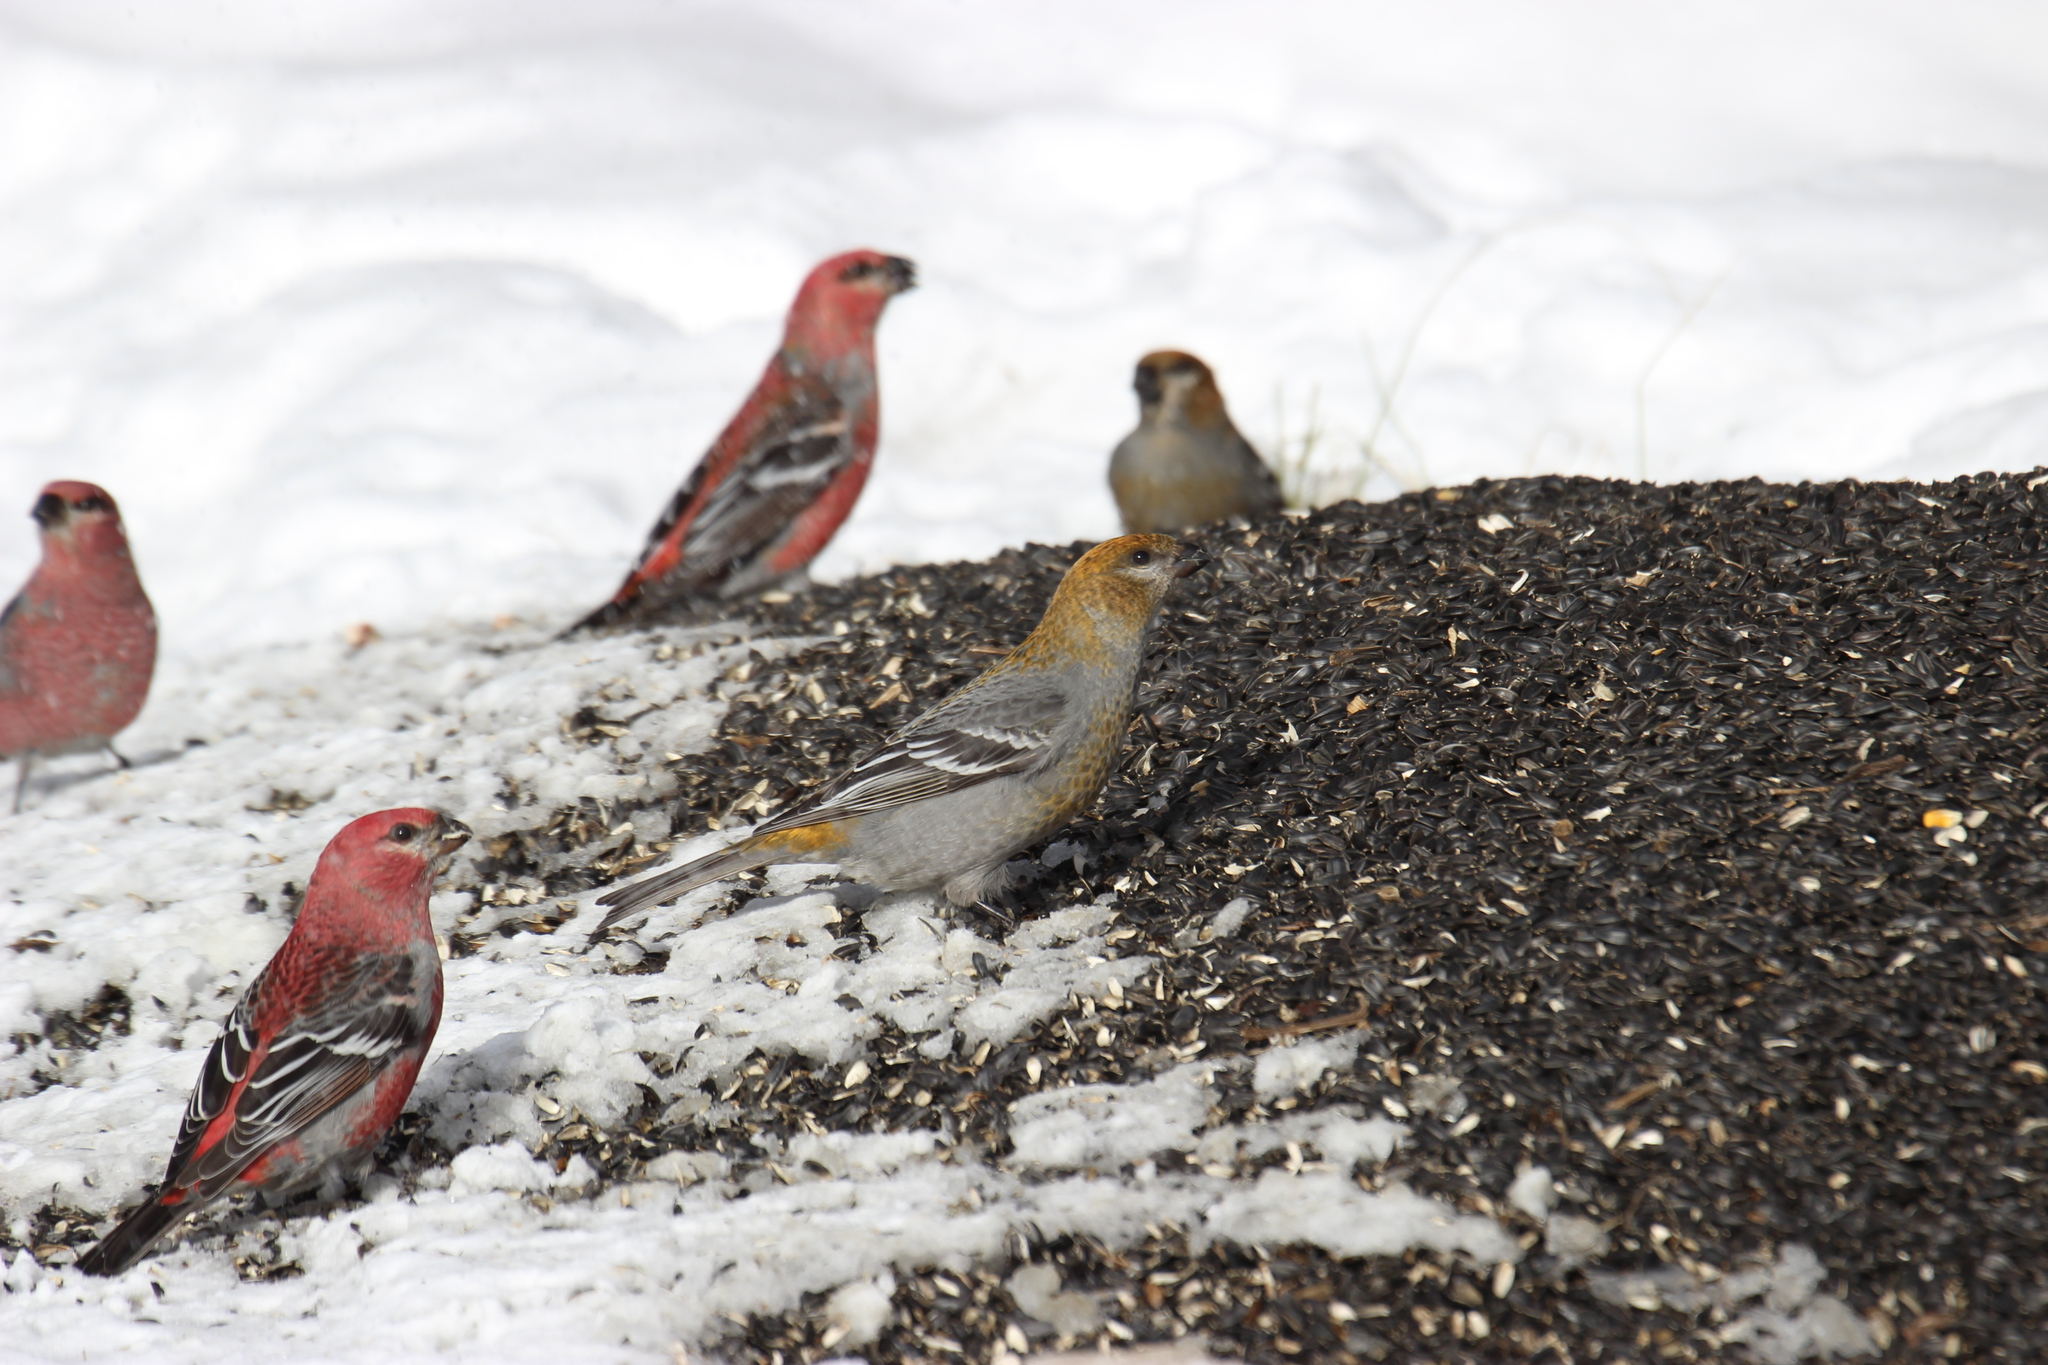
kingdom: Animalia
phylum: Chordata
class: Aves
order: Passeriformes
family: Fringillidae
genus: Pinicola
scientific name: Pinicola enucleator
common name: Pine grosbeak
